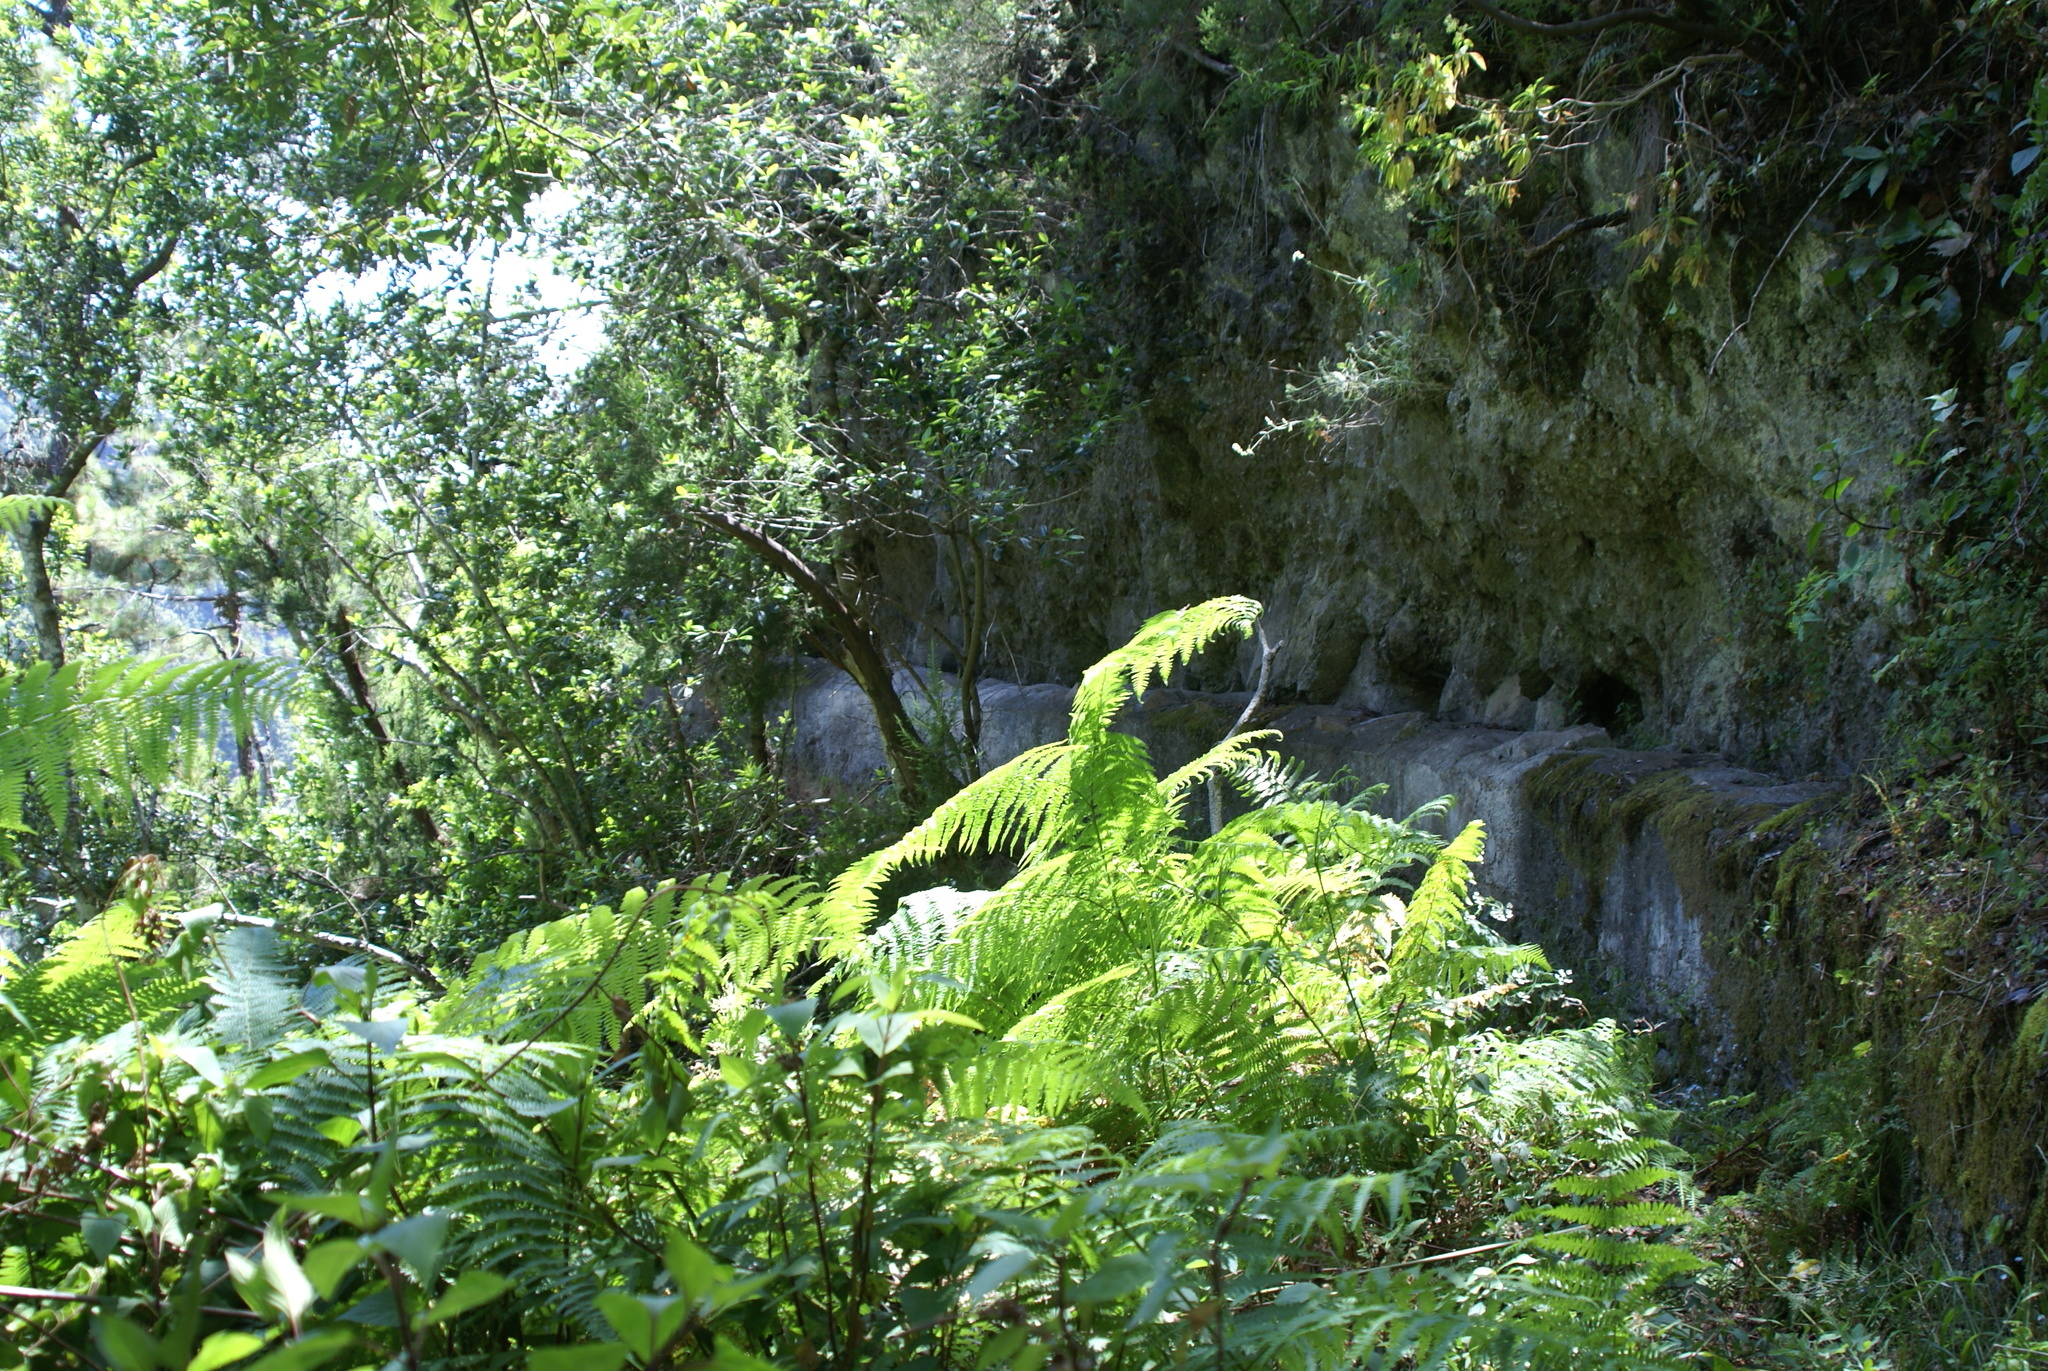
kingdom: Plantae
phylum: Tracheophyta
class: Polypodiopsida
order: Polypodiales
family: Dennstaedtiaceae
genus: Pteridium
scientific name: Pteridium aquilinum
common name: Bracken
